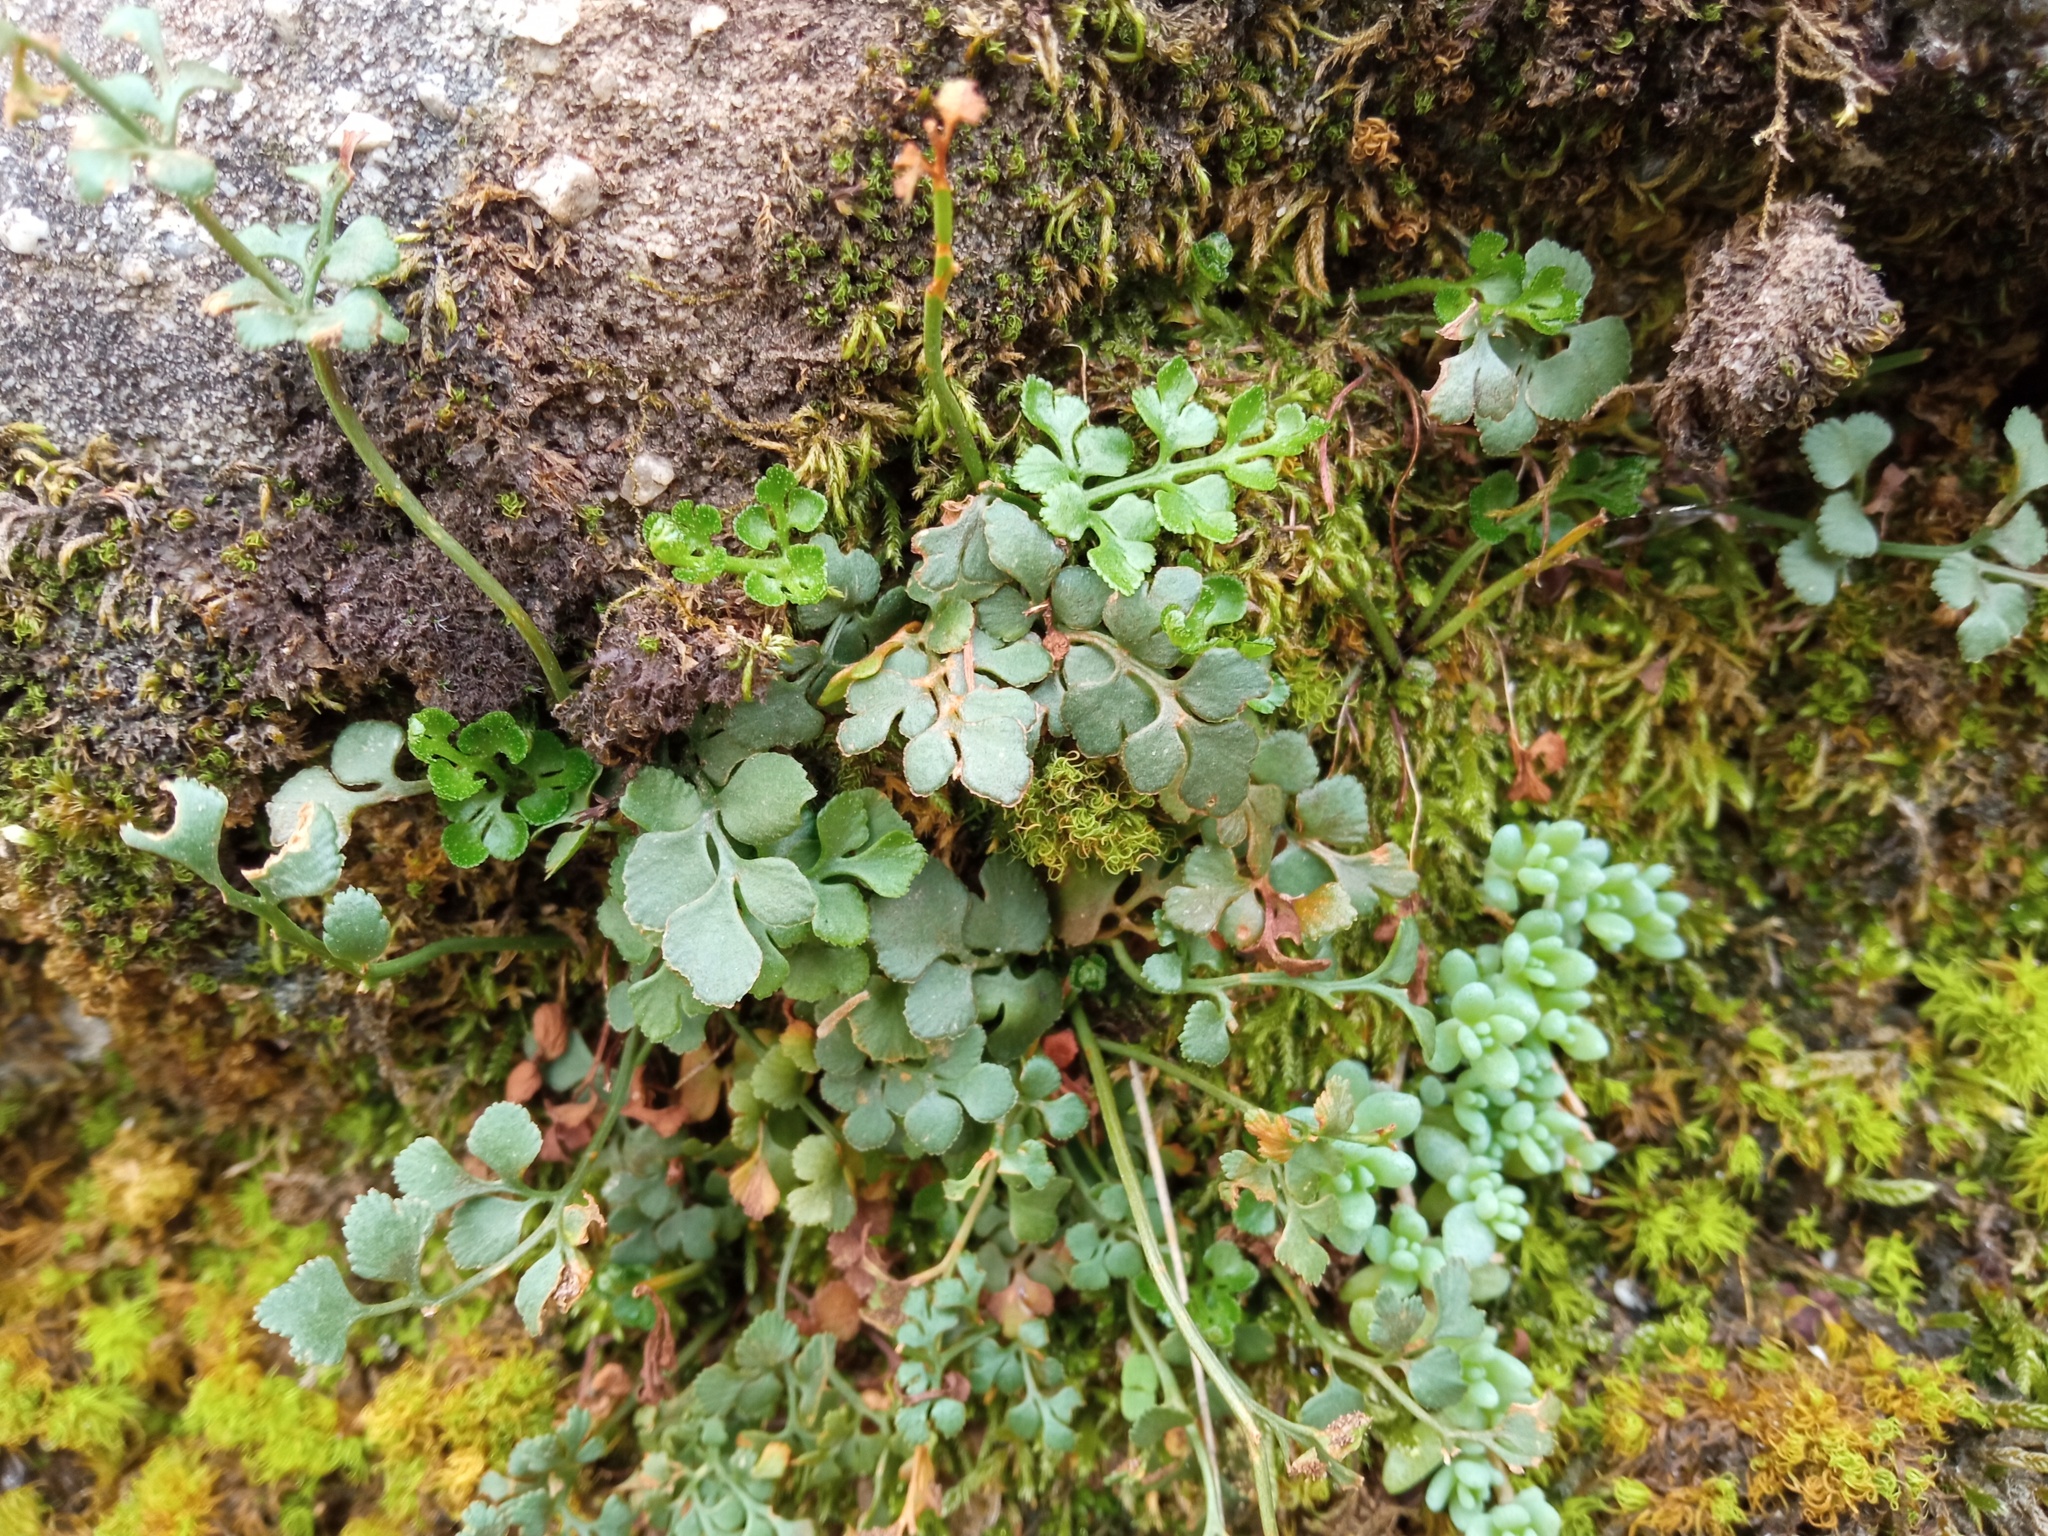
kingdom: Plantae
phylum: Tracheophyta
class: Polypodiopsida
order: Polypodiales
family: Aspleniaceae
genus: Asplenium
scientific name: Asplenium ruta-muraria
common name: Wall-rue
